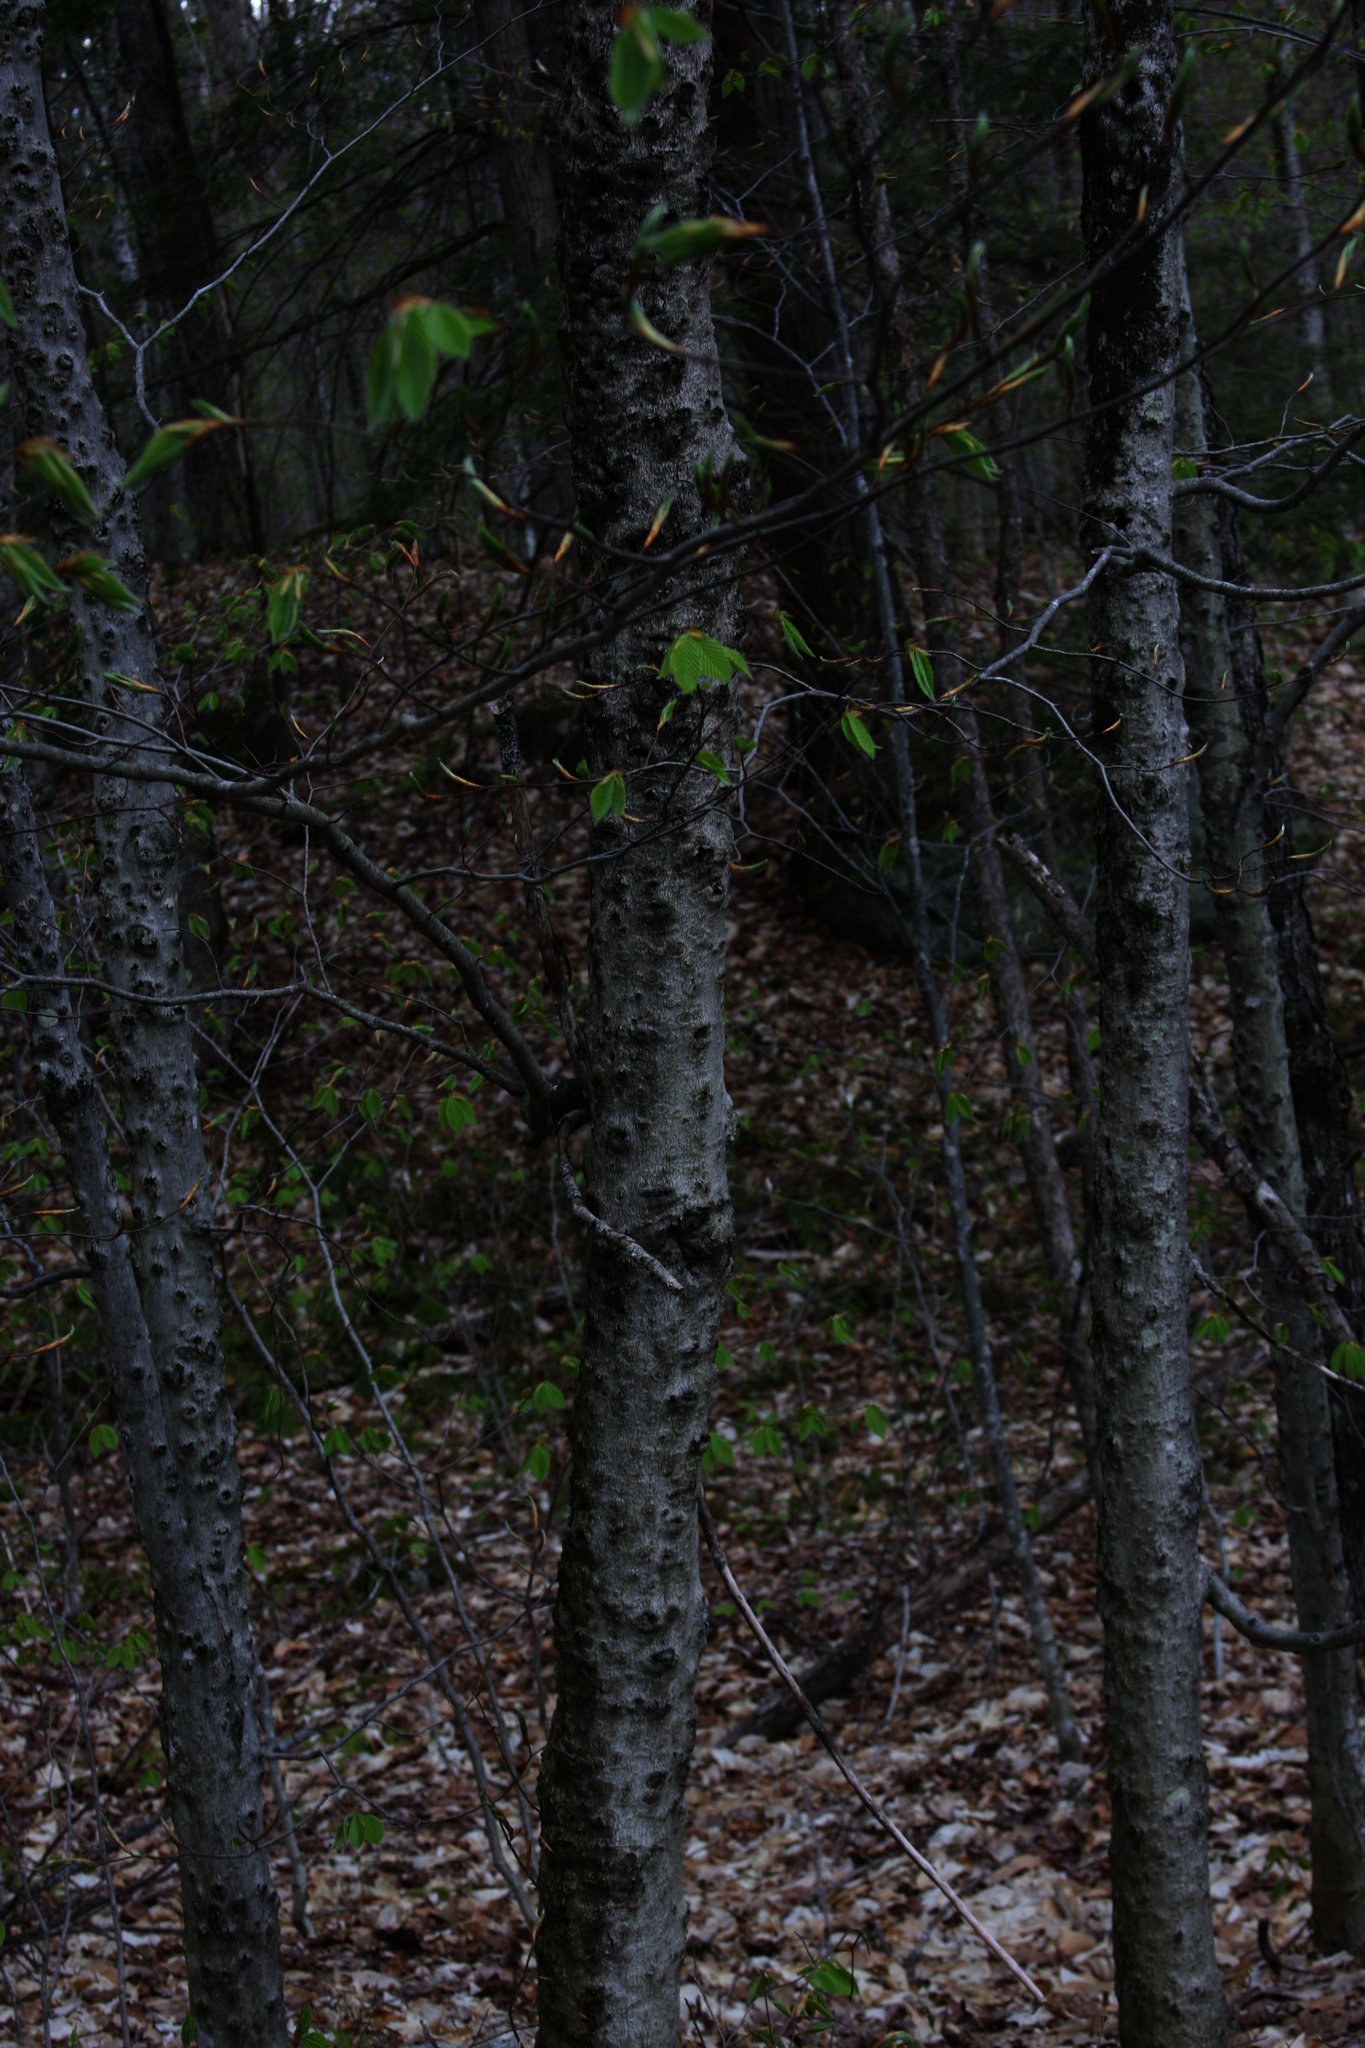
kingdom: Plantae
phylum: Tracheophyta
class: Magnoliopsida
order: Fagales
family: Fagaceae
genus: Fagus
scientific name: Fagus grandifolia
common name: American beech
